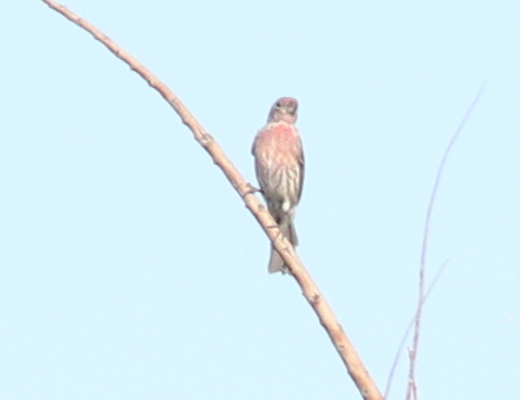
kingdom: Animalia
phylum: Chordata
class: Aves
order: Passeriformes
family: Fringillidae
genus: Haemorhous
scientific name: Haemorhous mexicanus
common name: House finch
